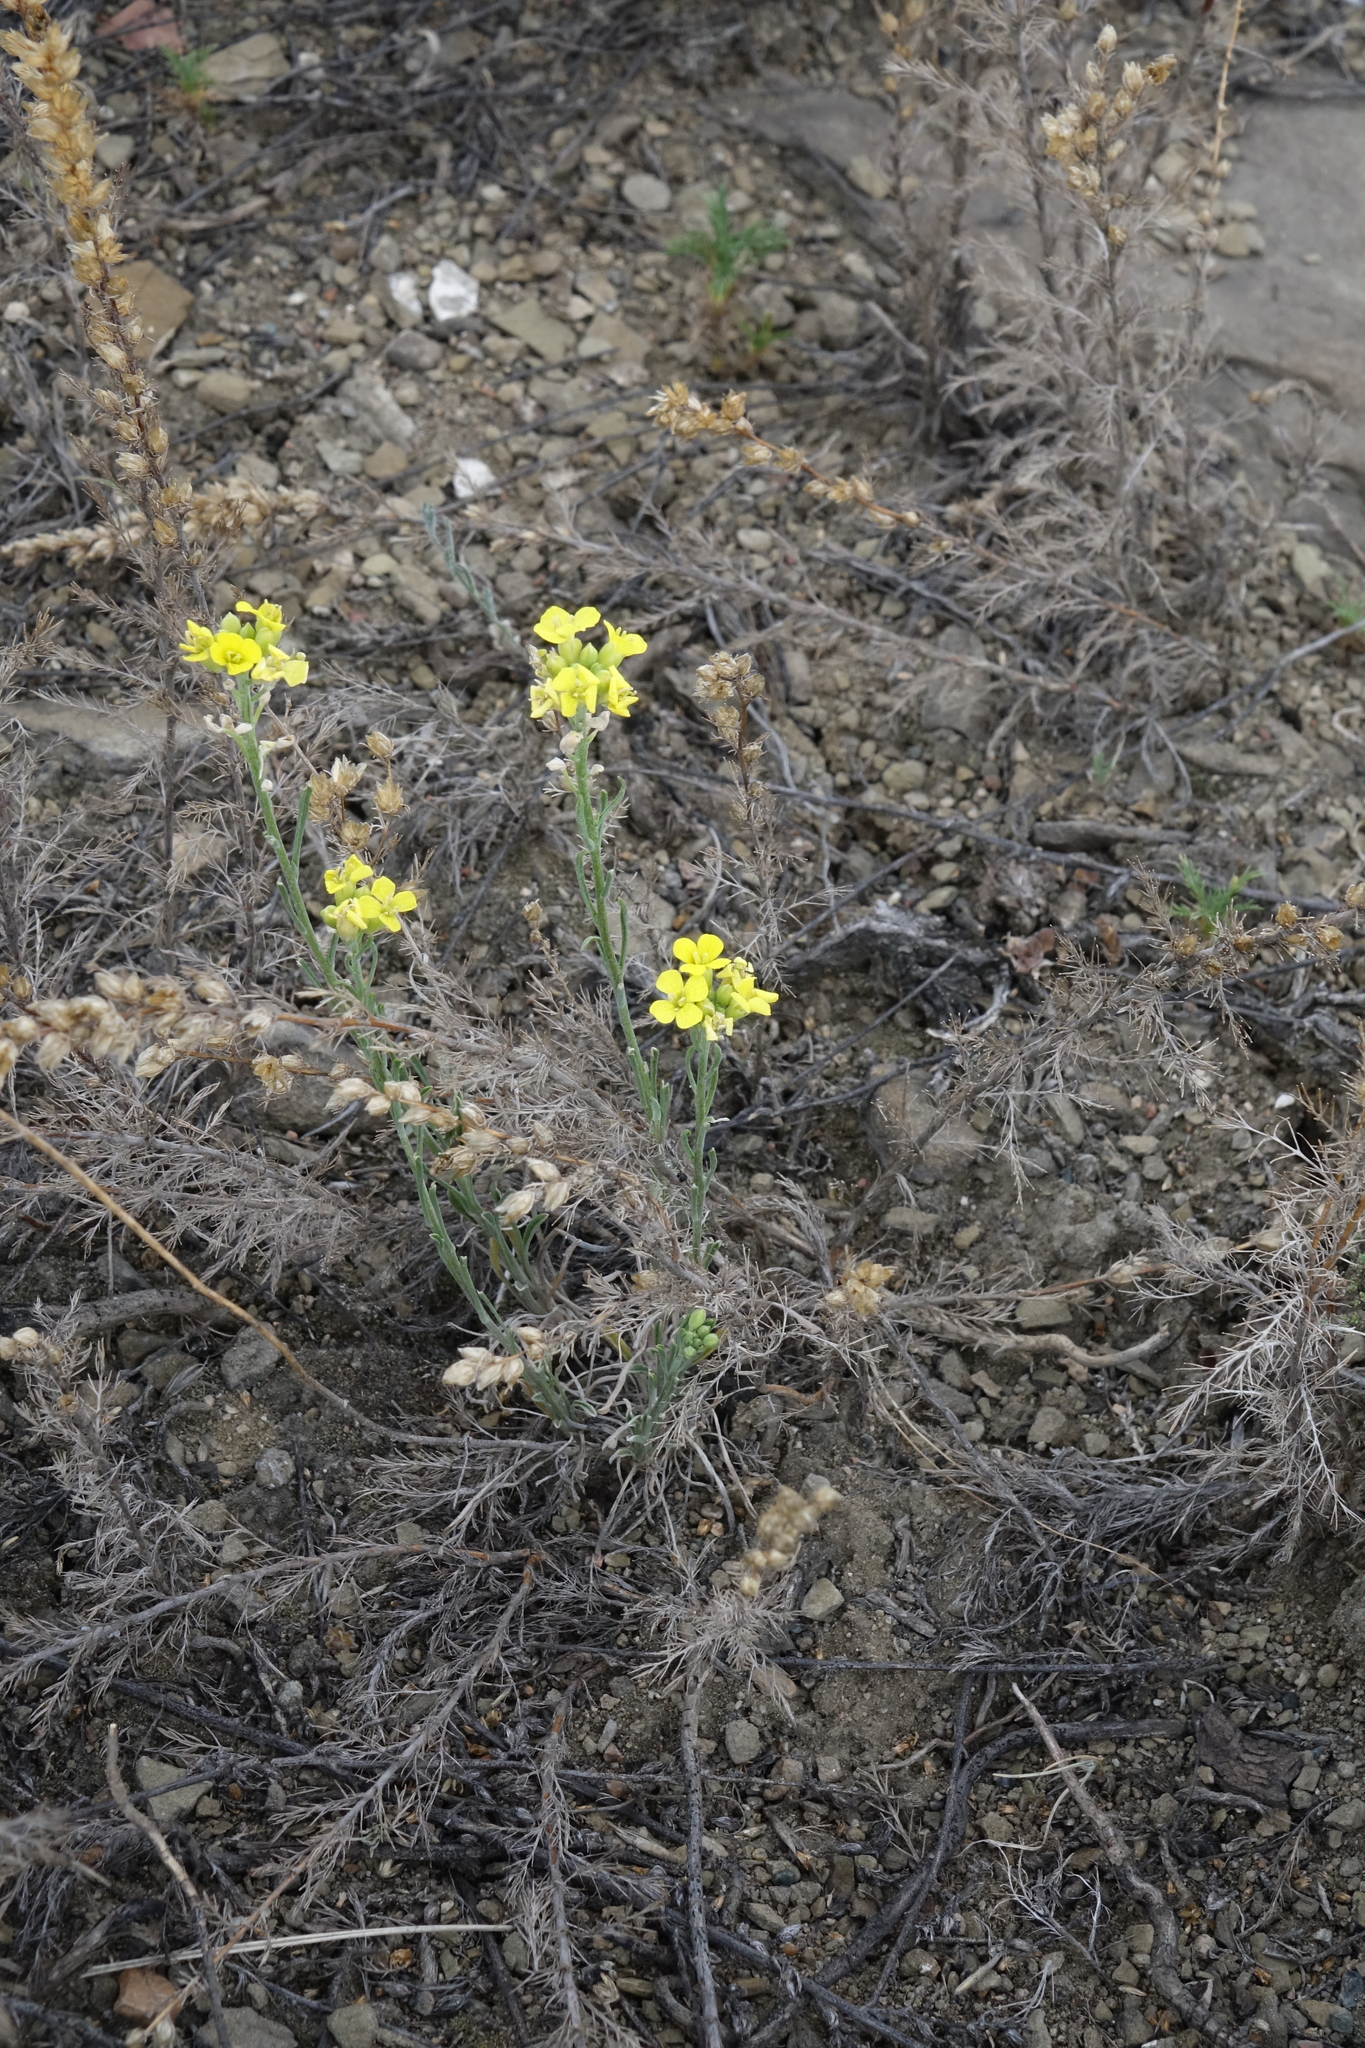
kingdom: Plantae
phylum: Tracheophyta
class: Magnoliopsida
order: Brassicales
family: Brassicaceae
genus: Erysimum
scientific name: Erysimum flavum
